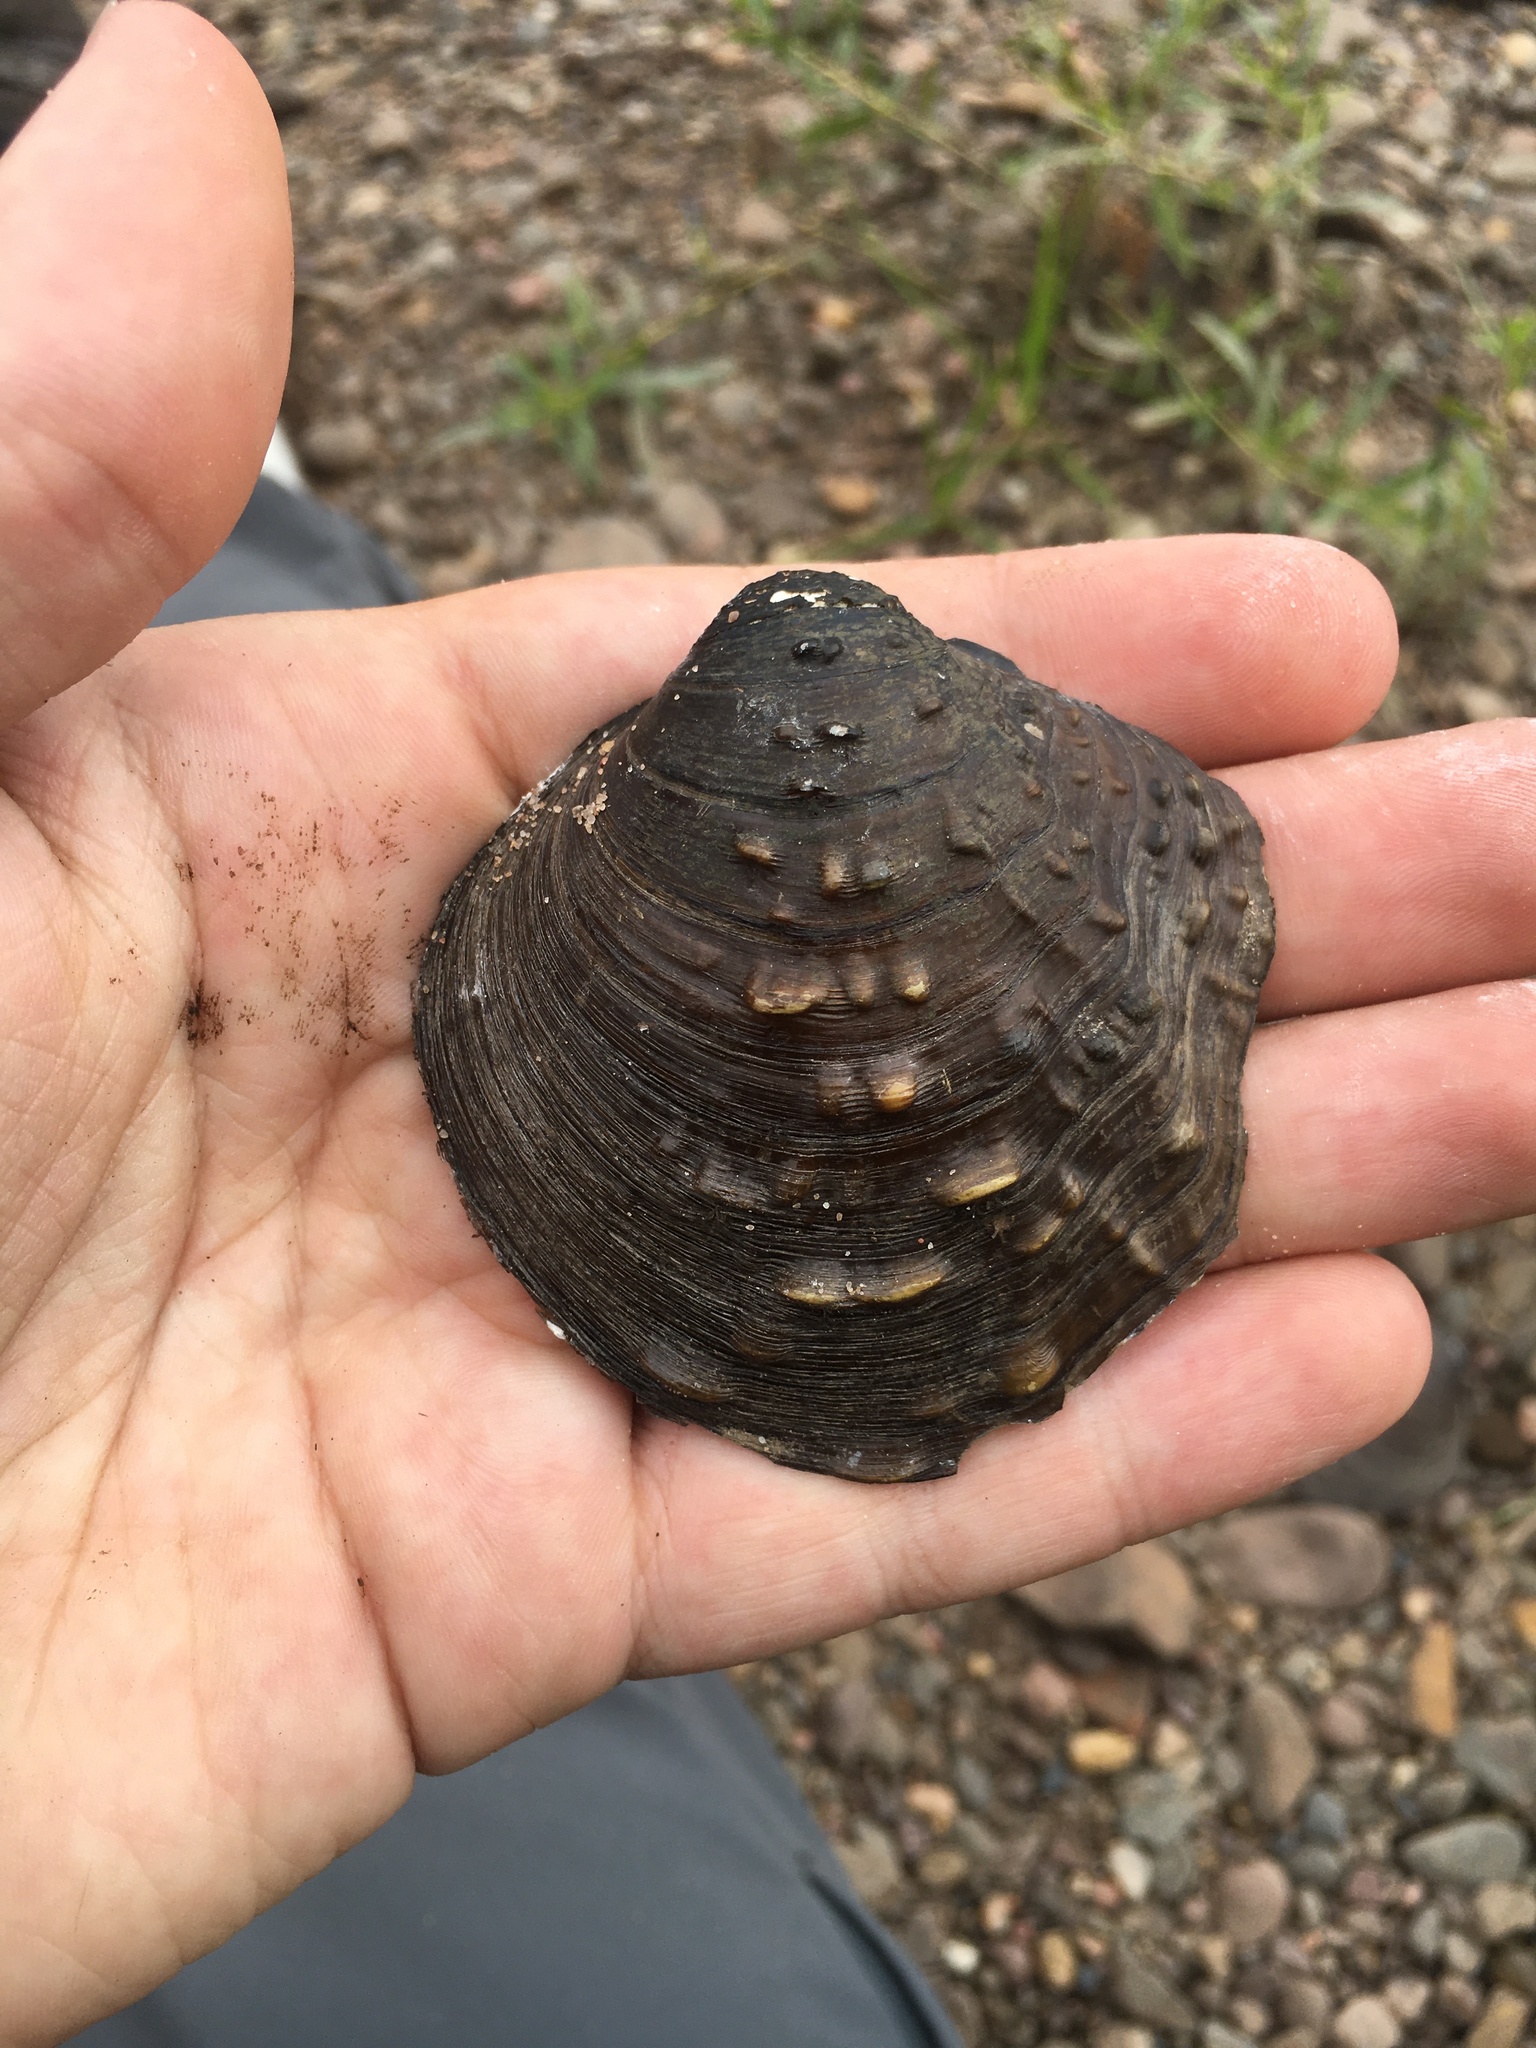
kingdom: Animalia
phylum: Mollusca
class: Bivalvia
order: Unionida
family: Unionidae
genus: Cyclonaias
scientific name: Cyclonaias tuberculata
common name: Purple wartyback
